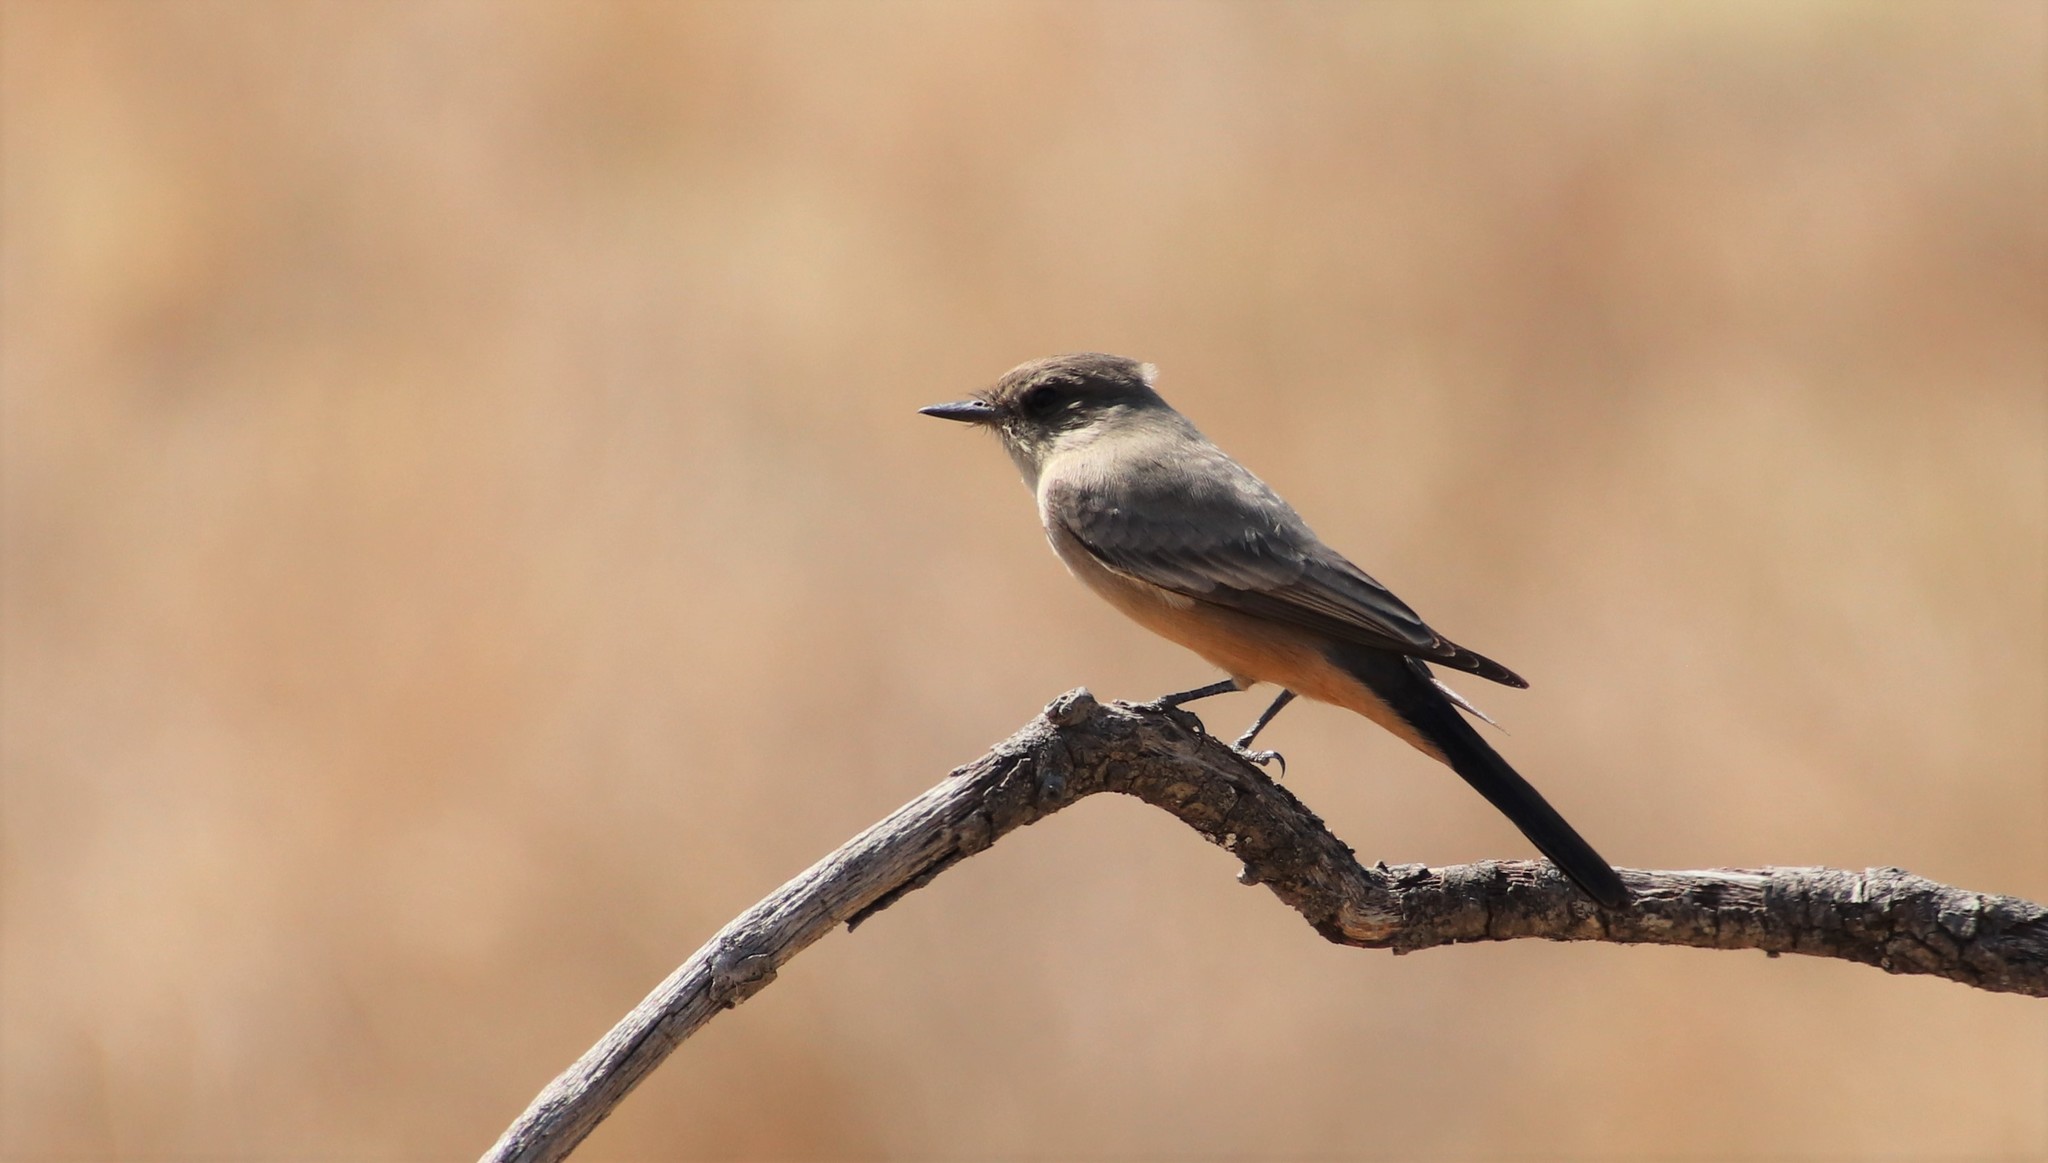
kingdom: Animalia
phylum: Chordata
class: Aves
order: Passeriformes
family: Tyrannidae
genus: Sayornis
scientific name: Sayornis saya
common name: Say's phoebe
